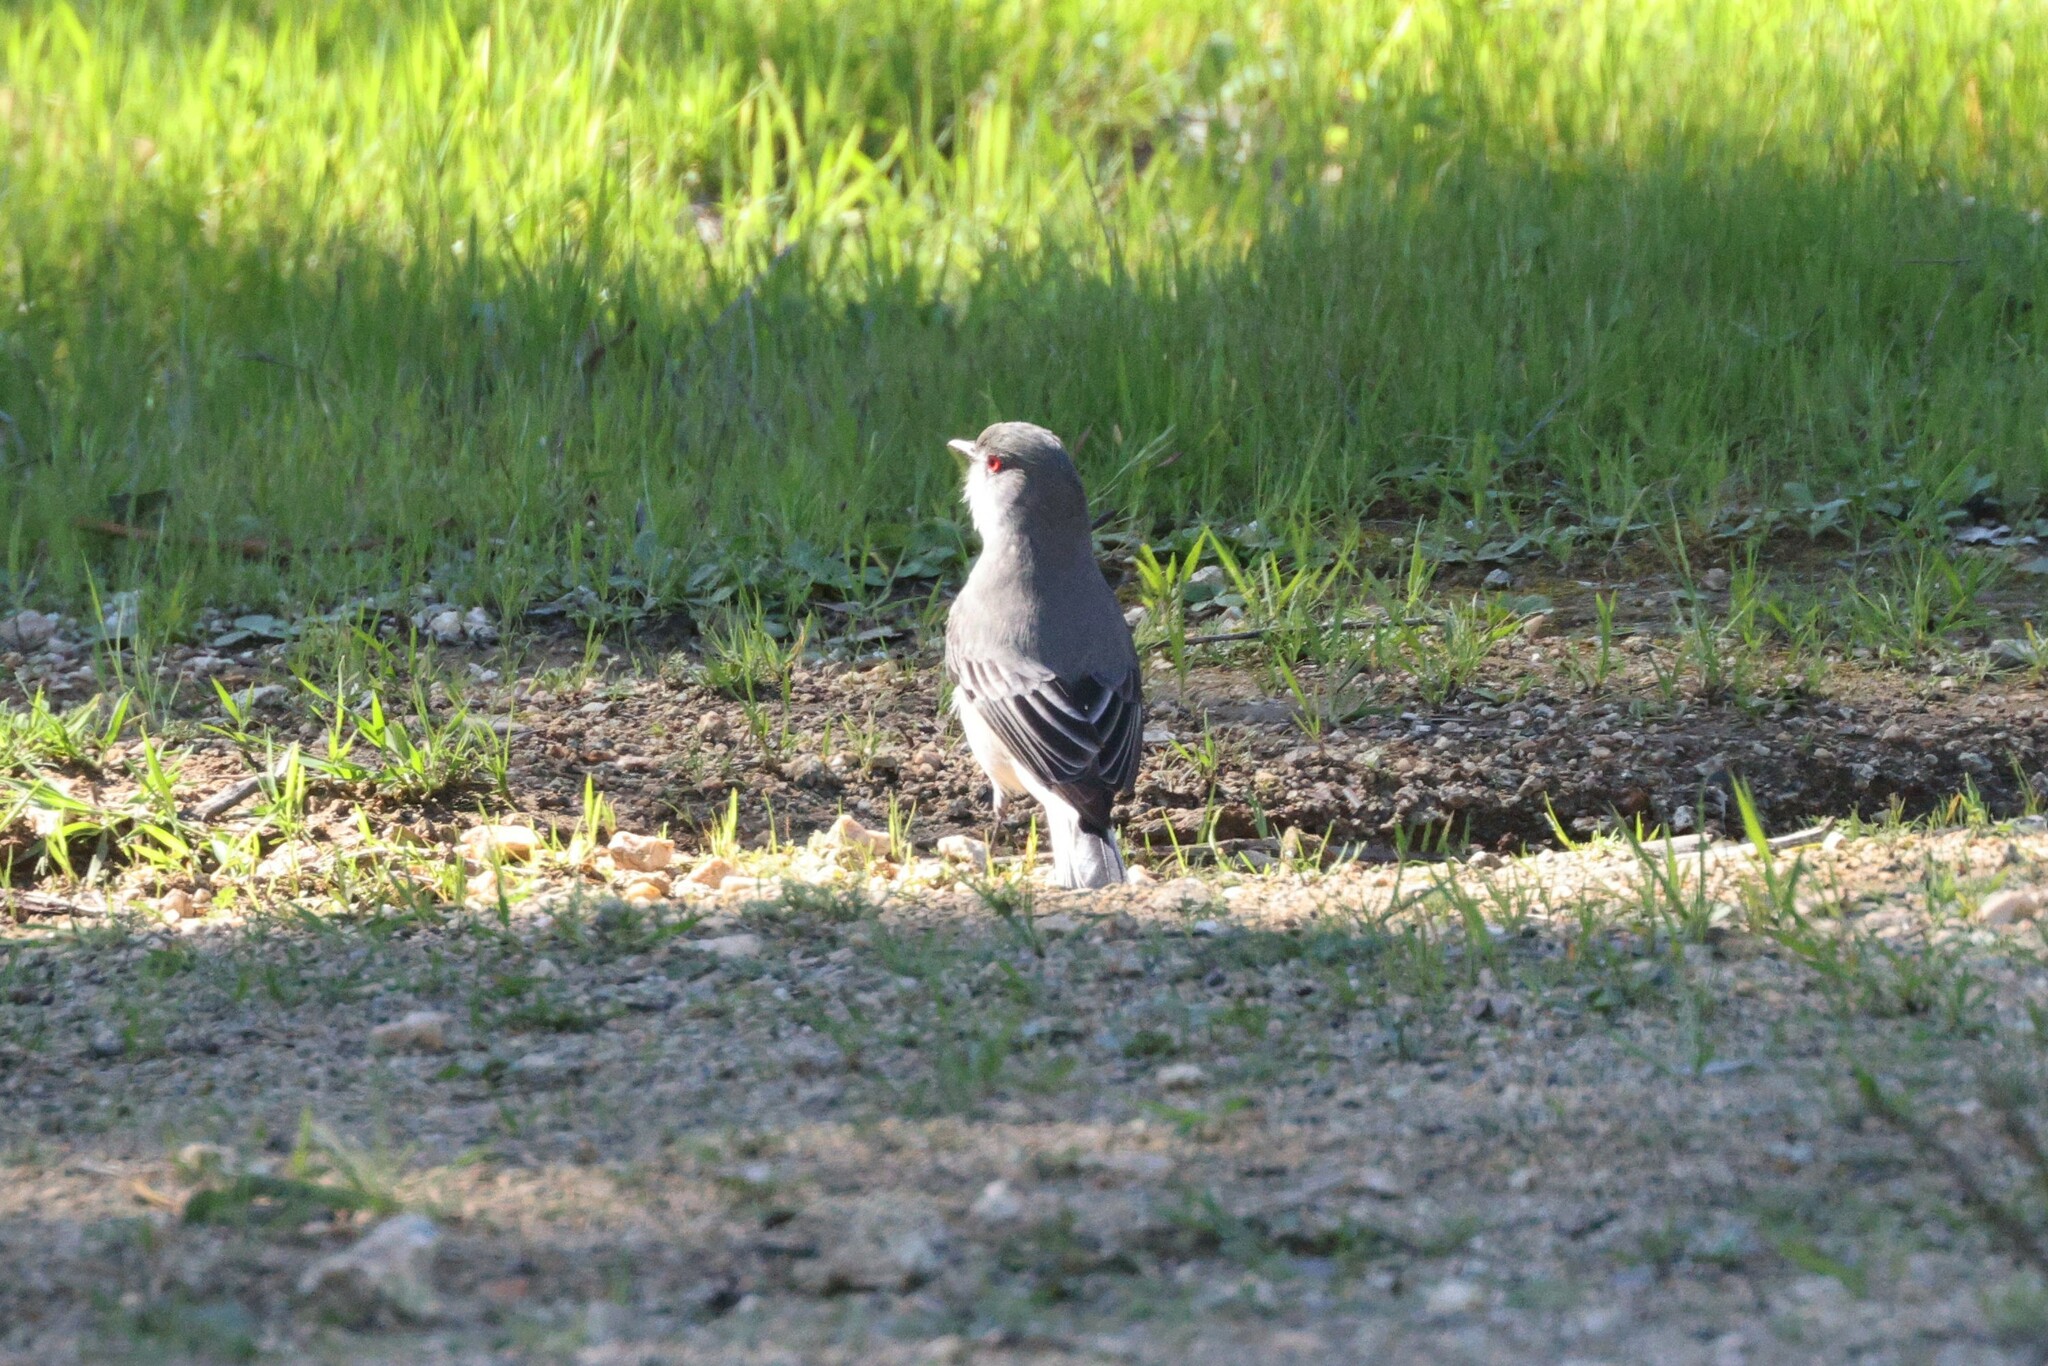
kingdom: Animalia
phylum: Chordata
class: Aves
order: Passeriformes
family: Tyrannidae
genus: Xolmis
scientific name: Xolmis pyrope
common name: Fire-eyed diucon
